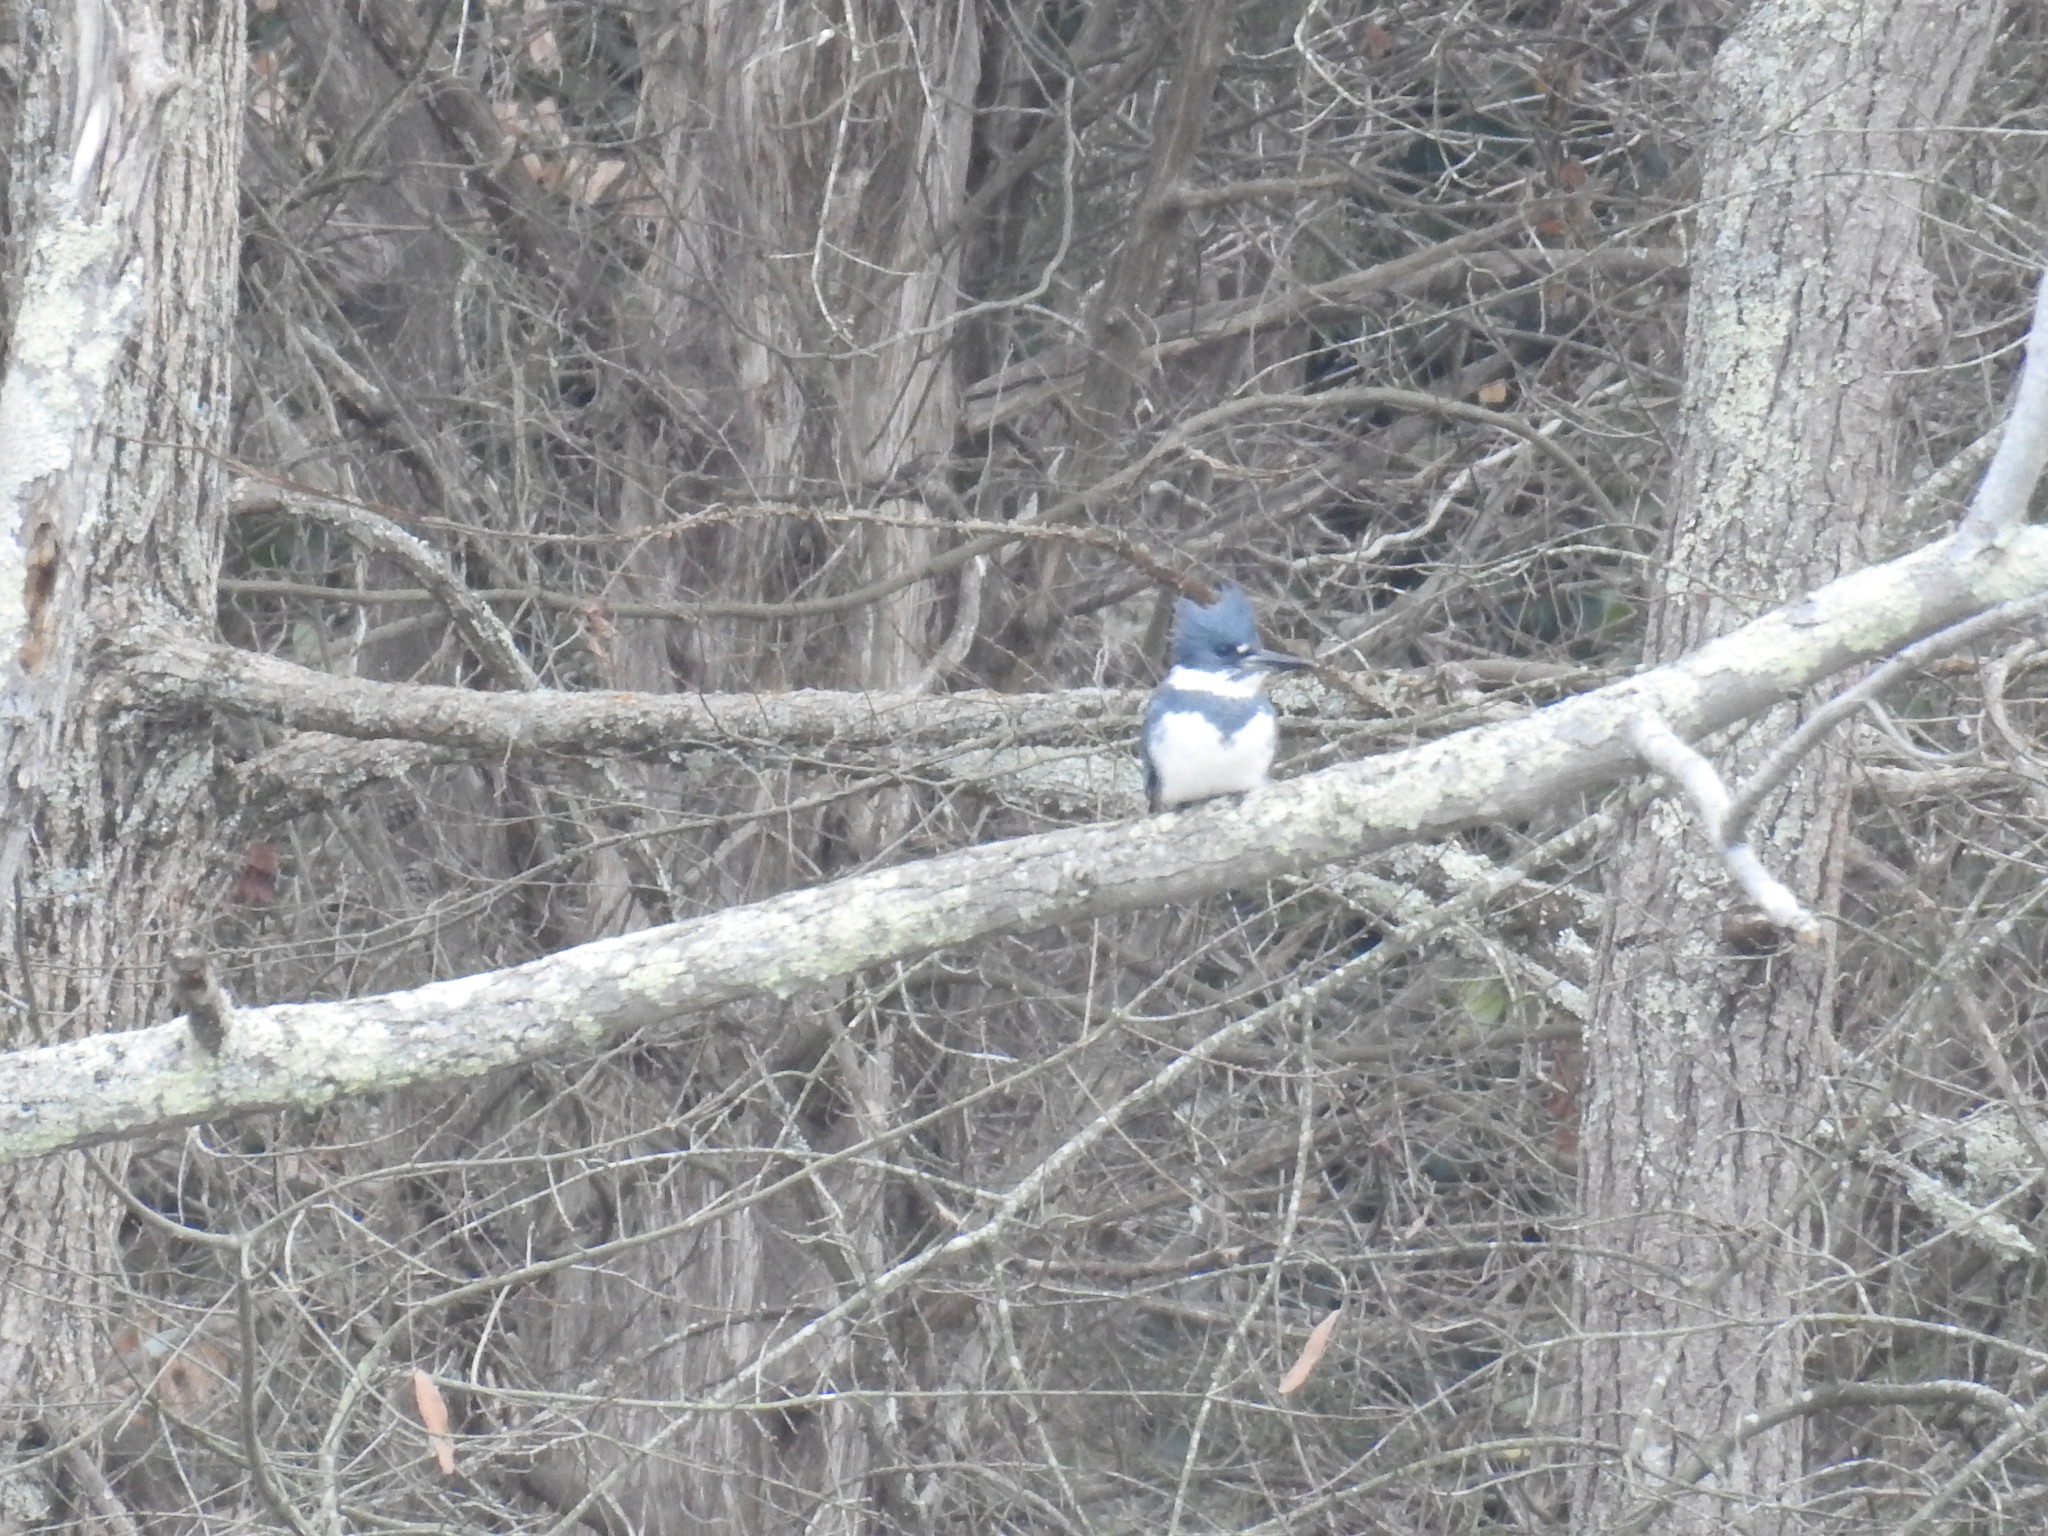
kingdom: Animalia
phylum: Chordata
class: Aves
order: Coraciiformes
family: Alcedinidae
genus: Megaceryle
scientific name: Megaceryle alcyon
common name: Belted kingfisher
